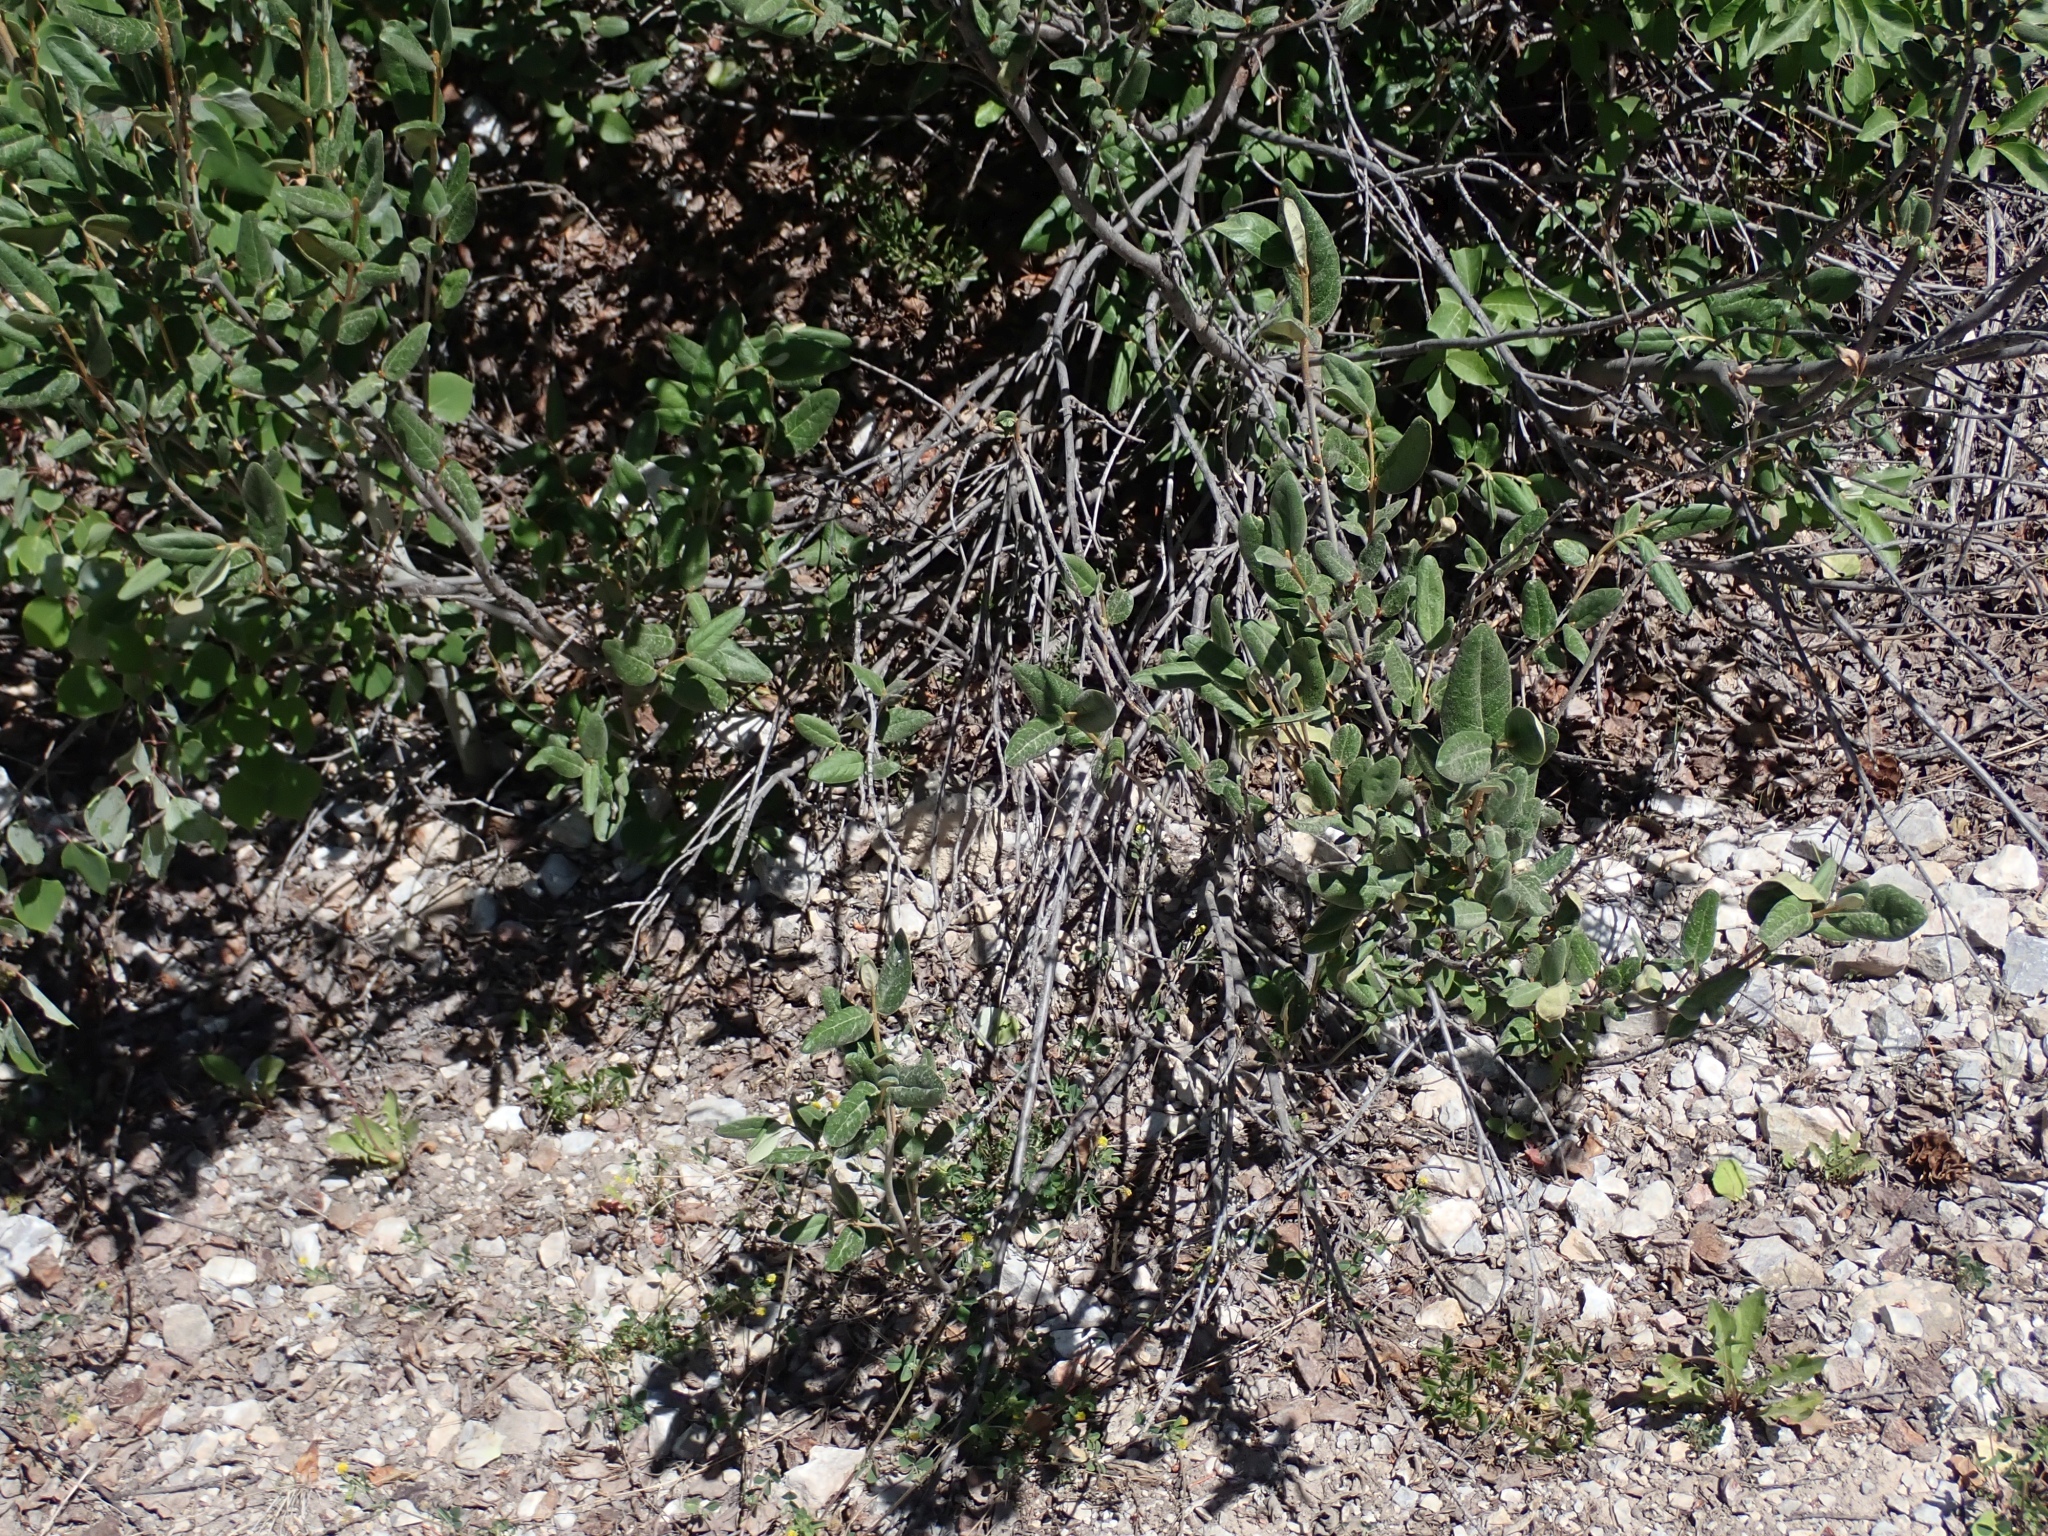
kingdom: Plantae
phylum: Tracheophyta
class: Magnoliopsida
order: Rosales
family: Elaeagnaceae
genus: Shepherdia
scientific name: Shepherdia canadensis
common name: Soapberry
